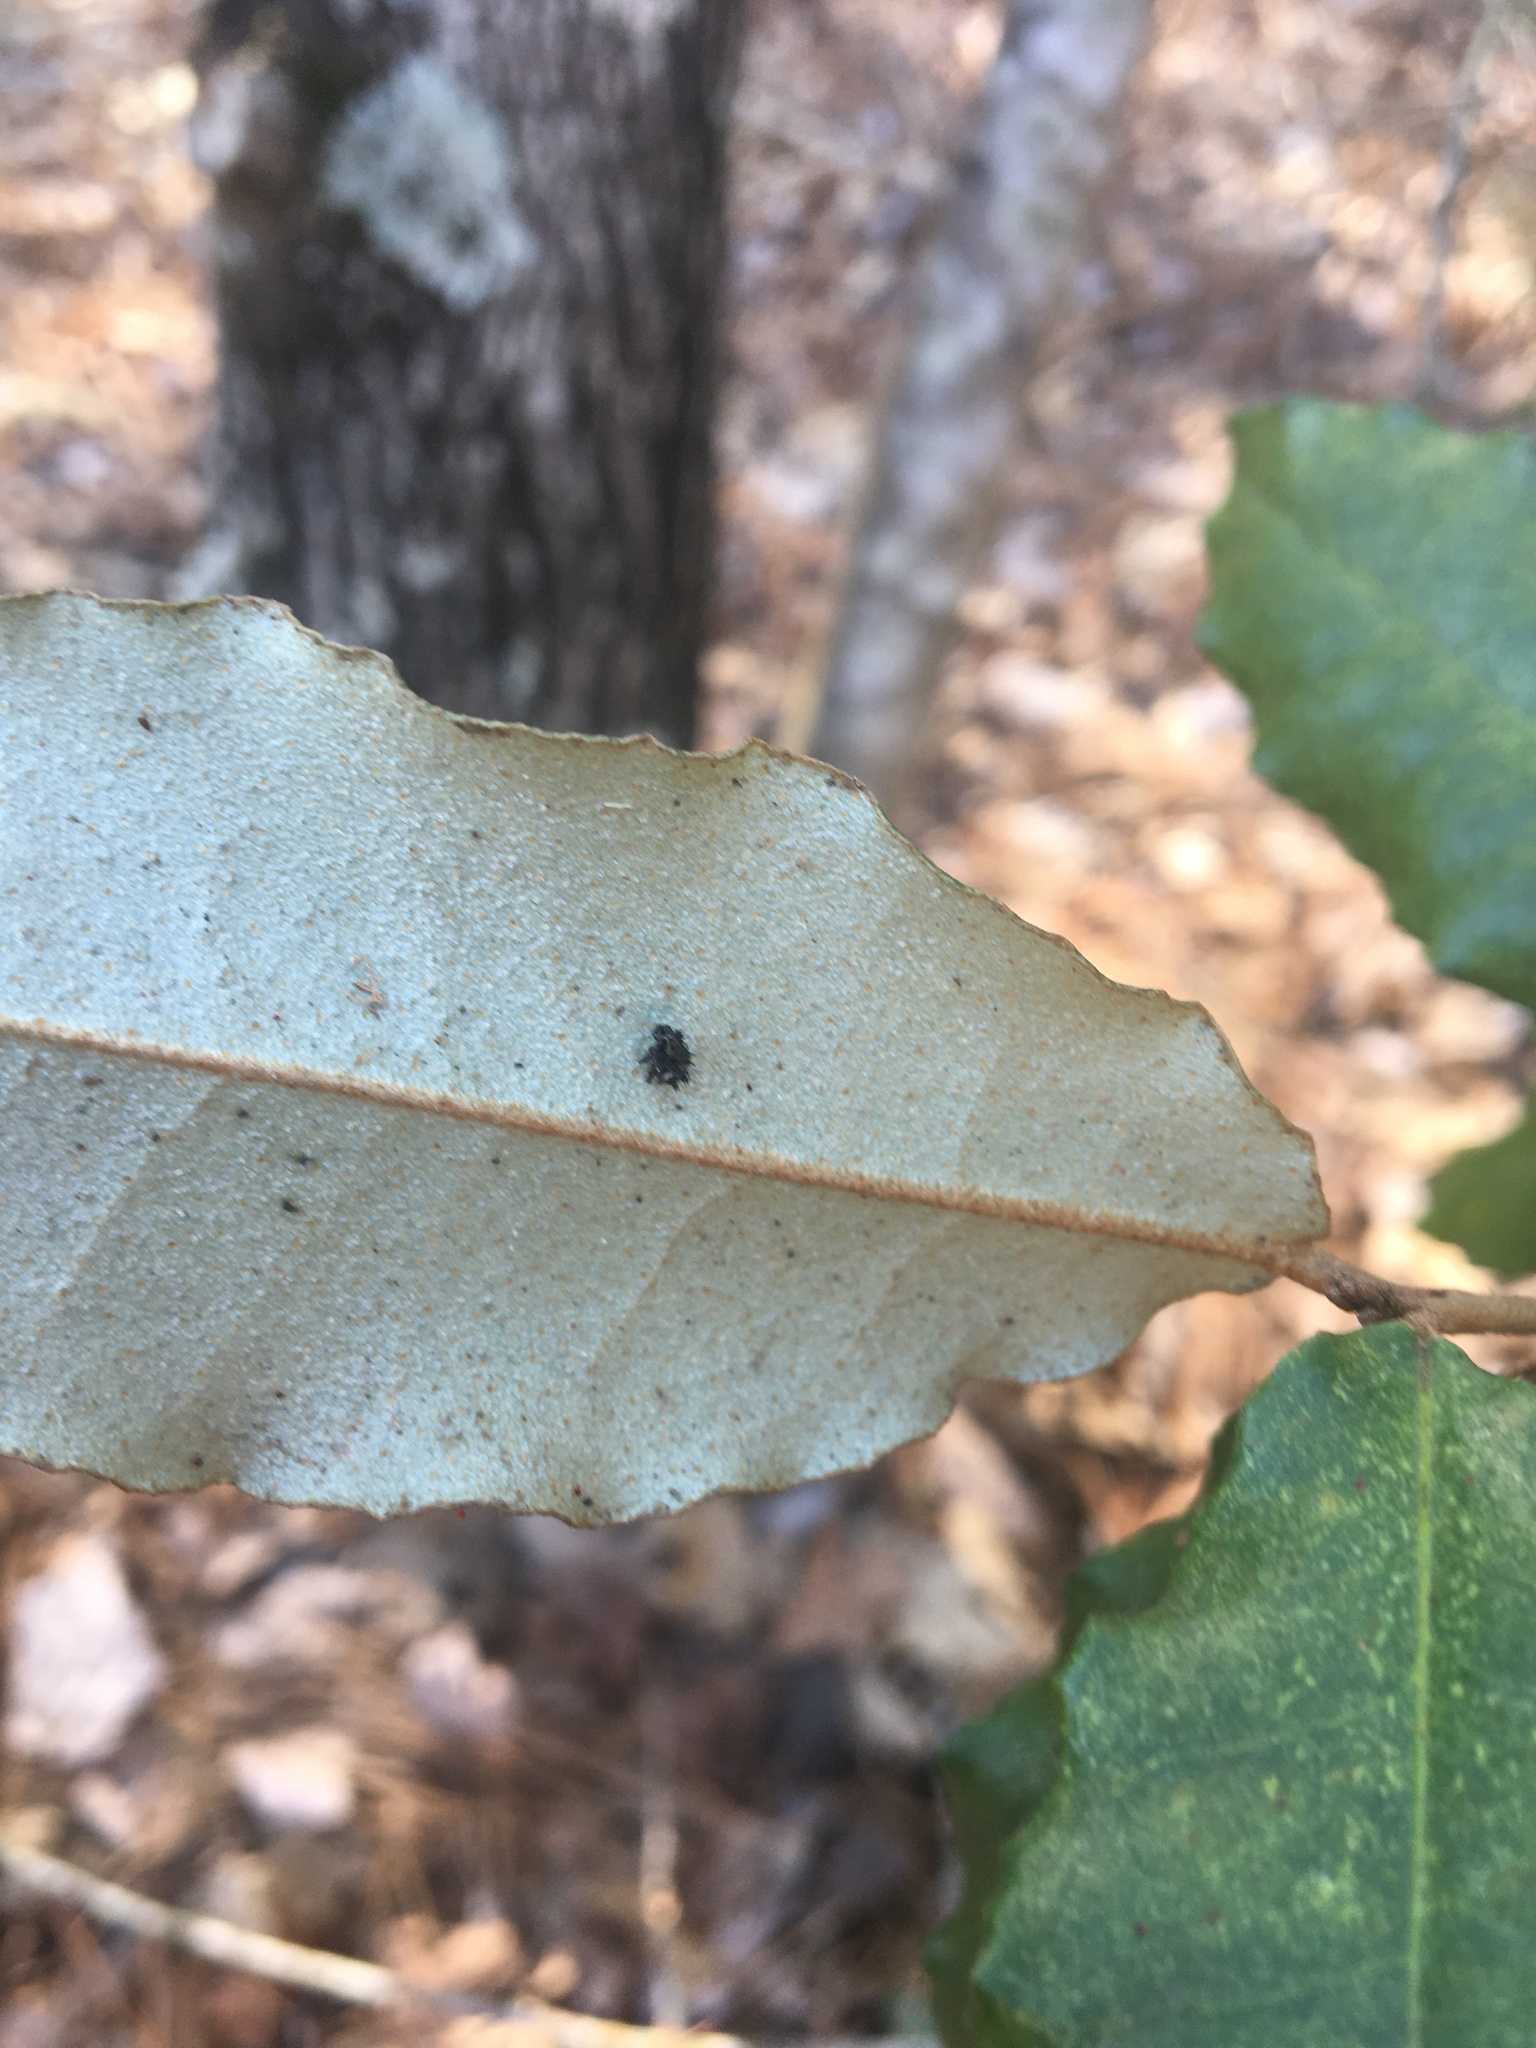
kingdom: Plantae
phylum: Tracheophyta
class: Magnoliopsida
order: Rosales
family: Elaeagnaceae
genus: Elaeagnus
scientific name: Elaeagnus pungens
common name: Spiny oleaster
